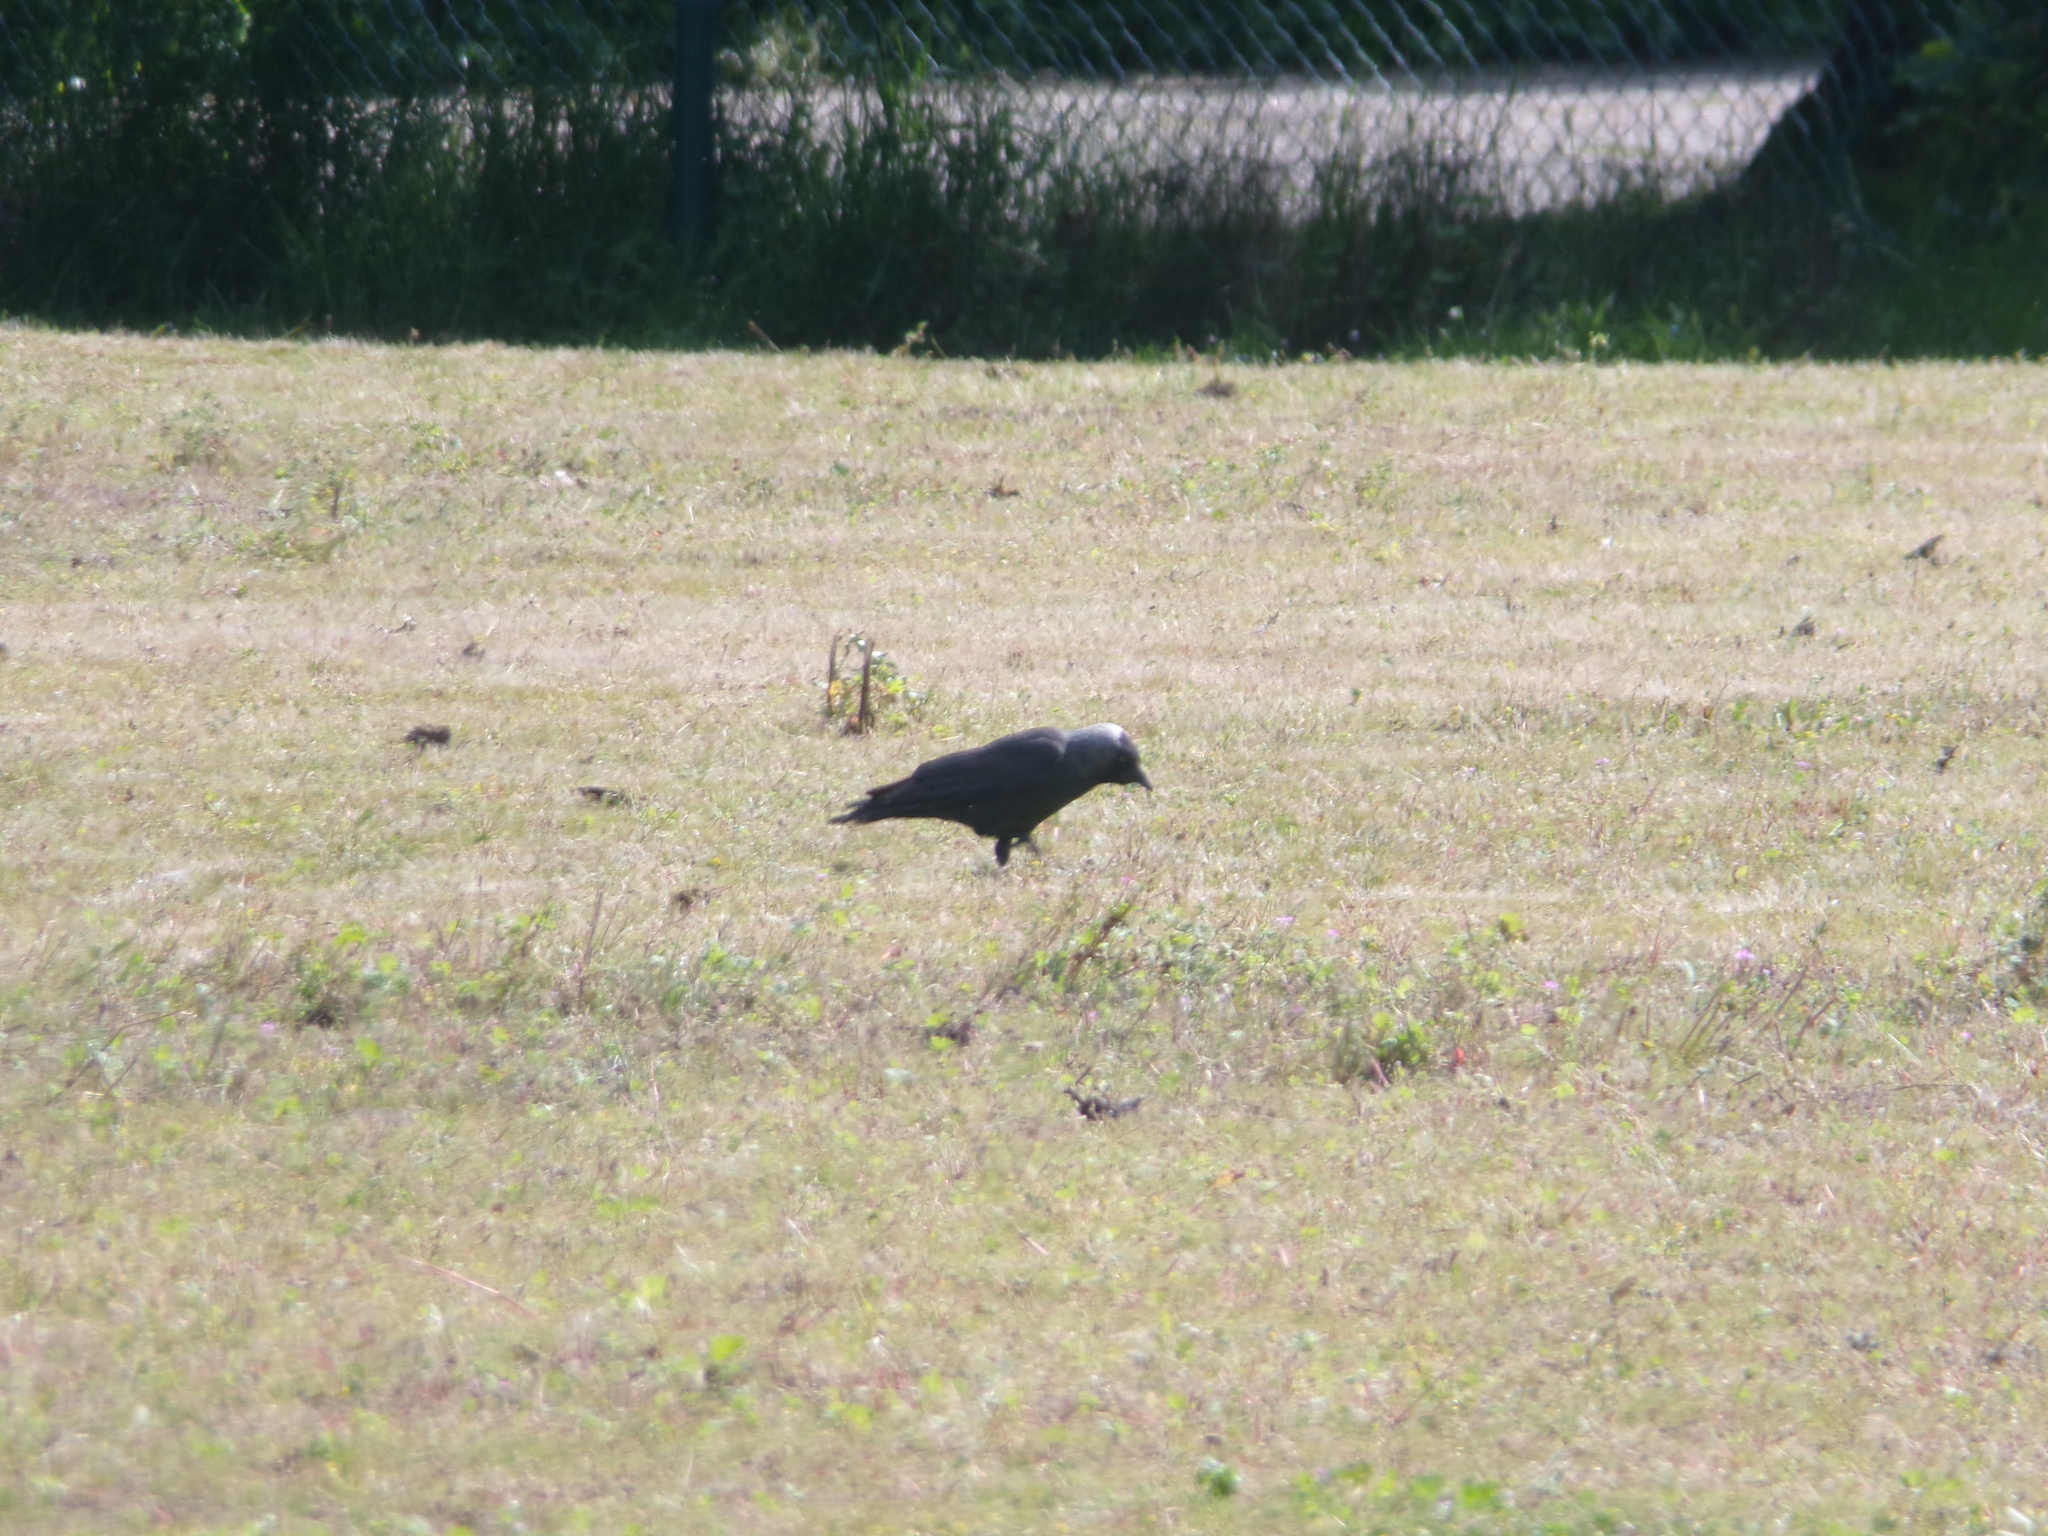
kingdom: Animalia
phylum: Chordata
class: Aves
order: Passeriformes
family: Corvidae
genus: Coloeus
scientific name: Coloeus monedula
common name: Western jackdaw
